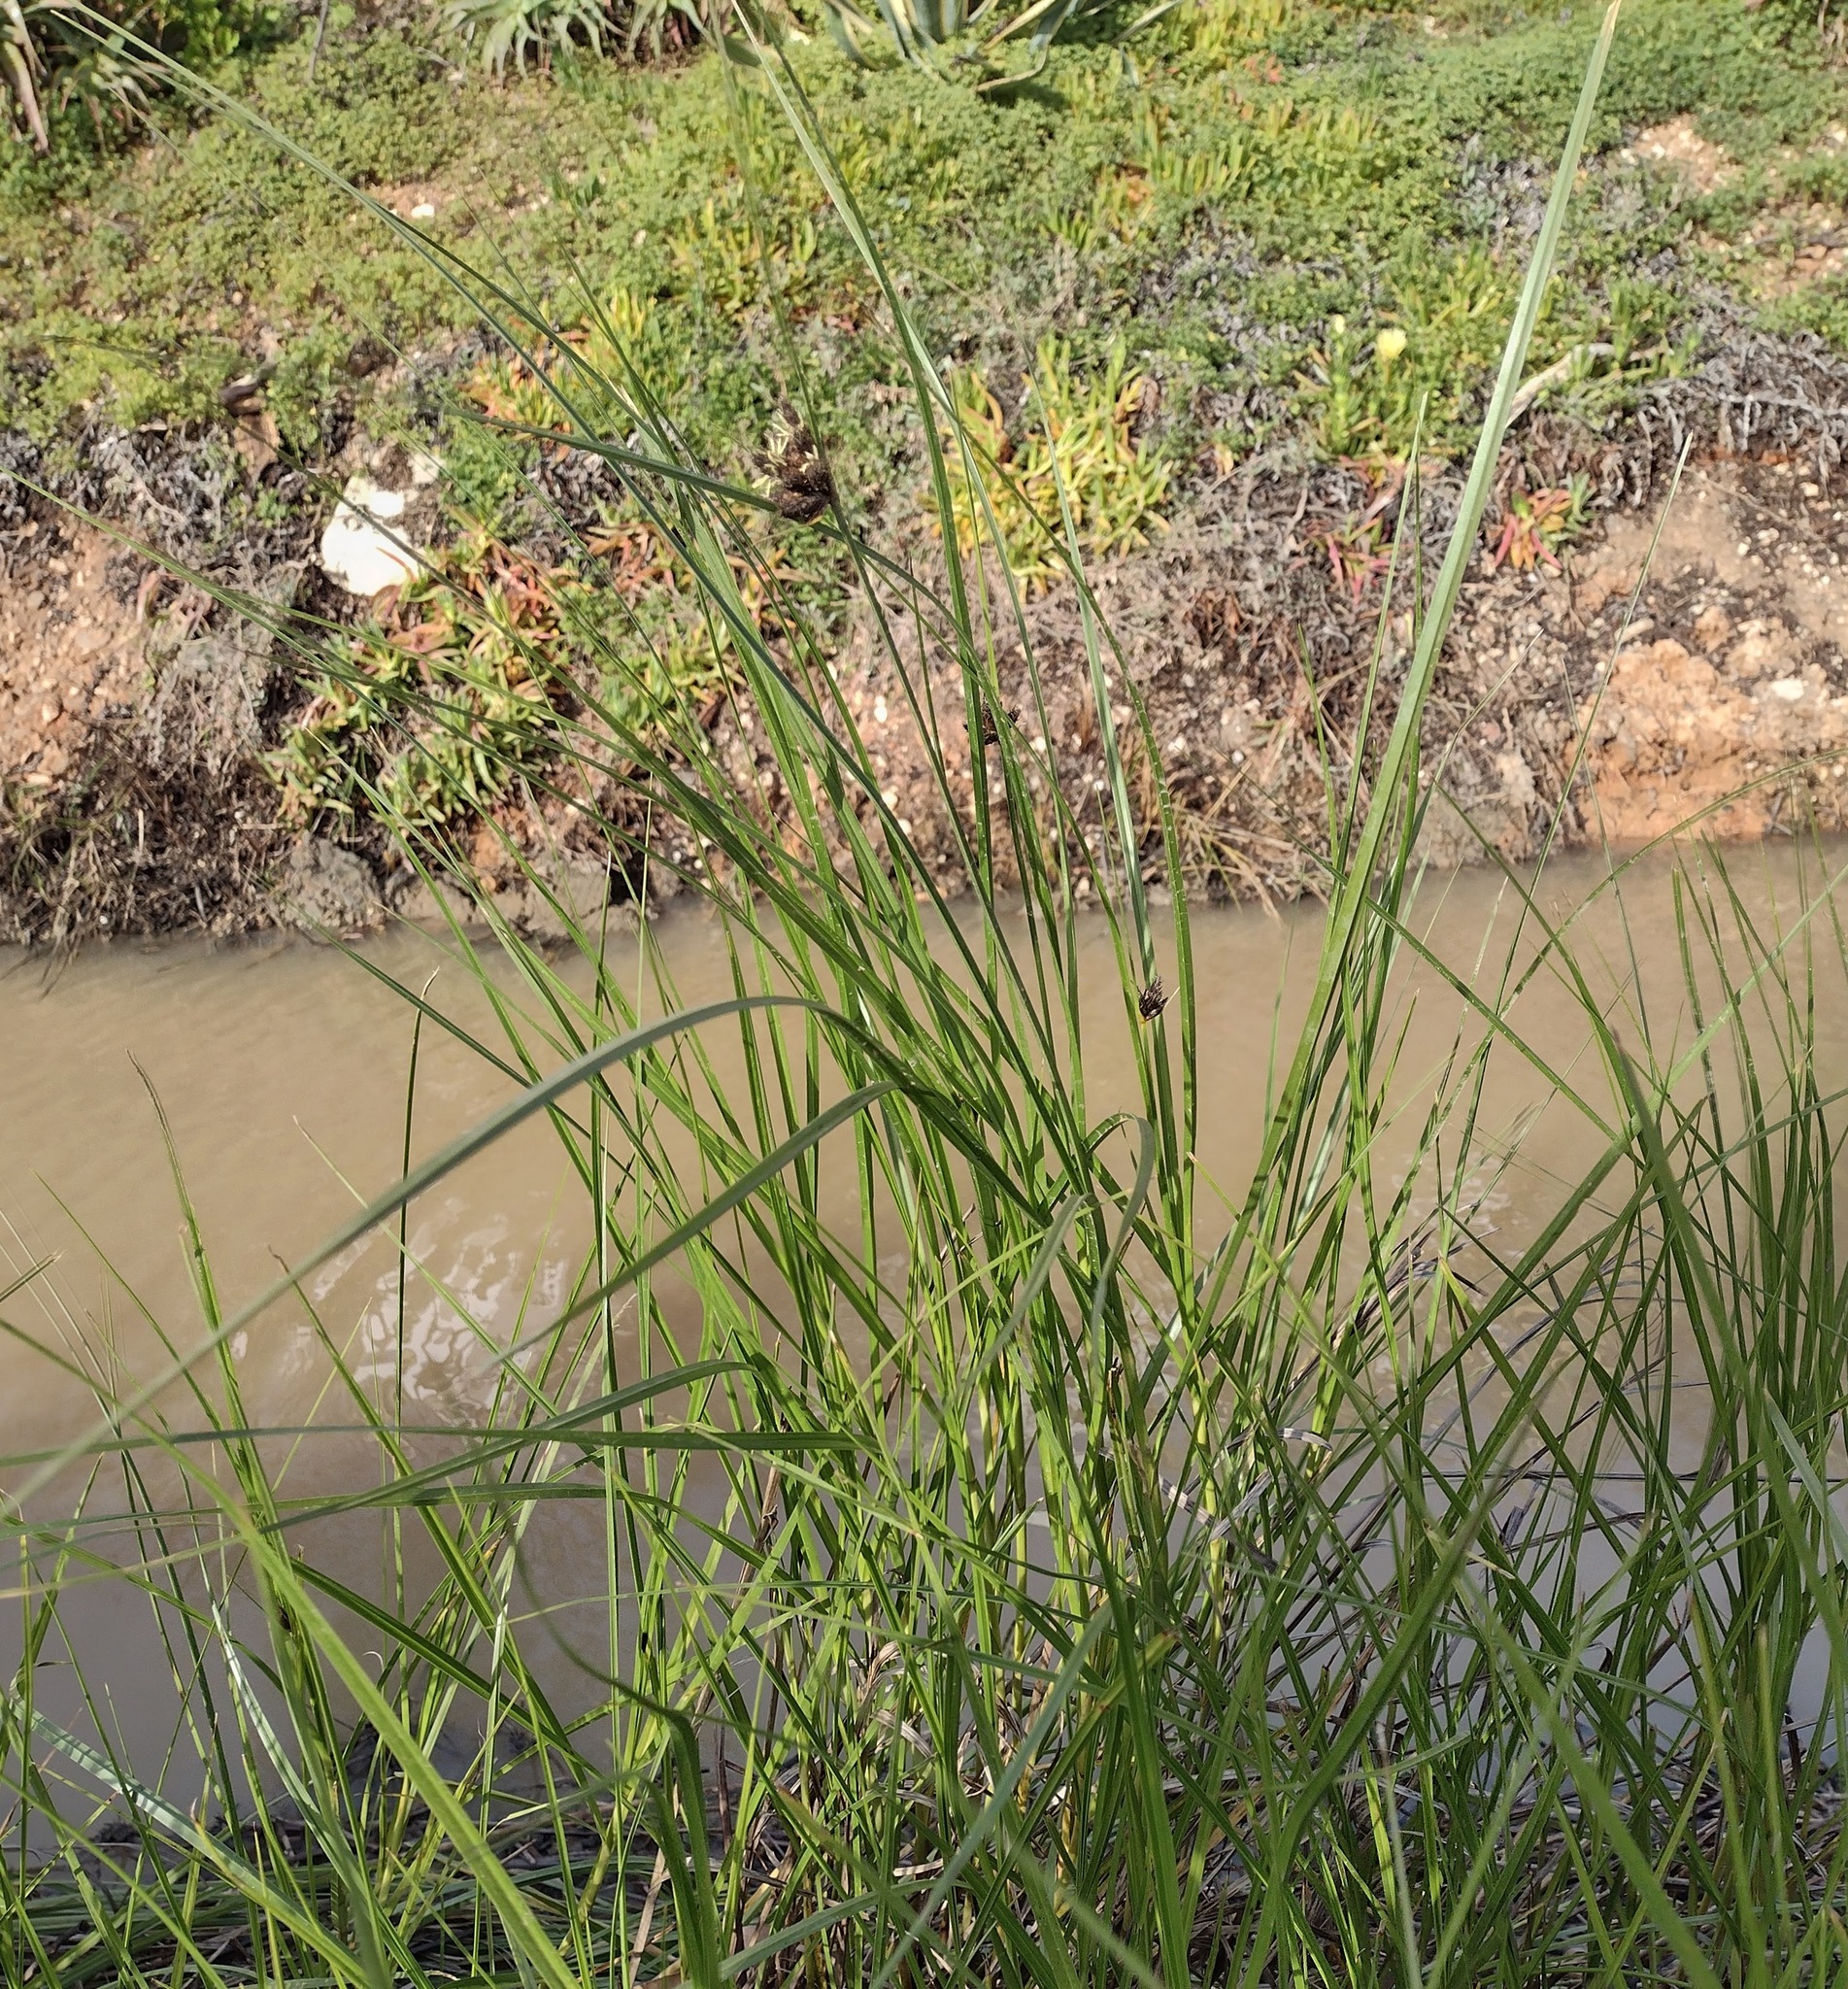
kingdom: Plantae
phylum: Tracheophyta
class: Liliopsida
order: Poales
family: Cyperaceae
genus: Bolboschoenus
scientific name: Bolboschoenus maritimus
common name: Sea club-rush
